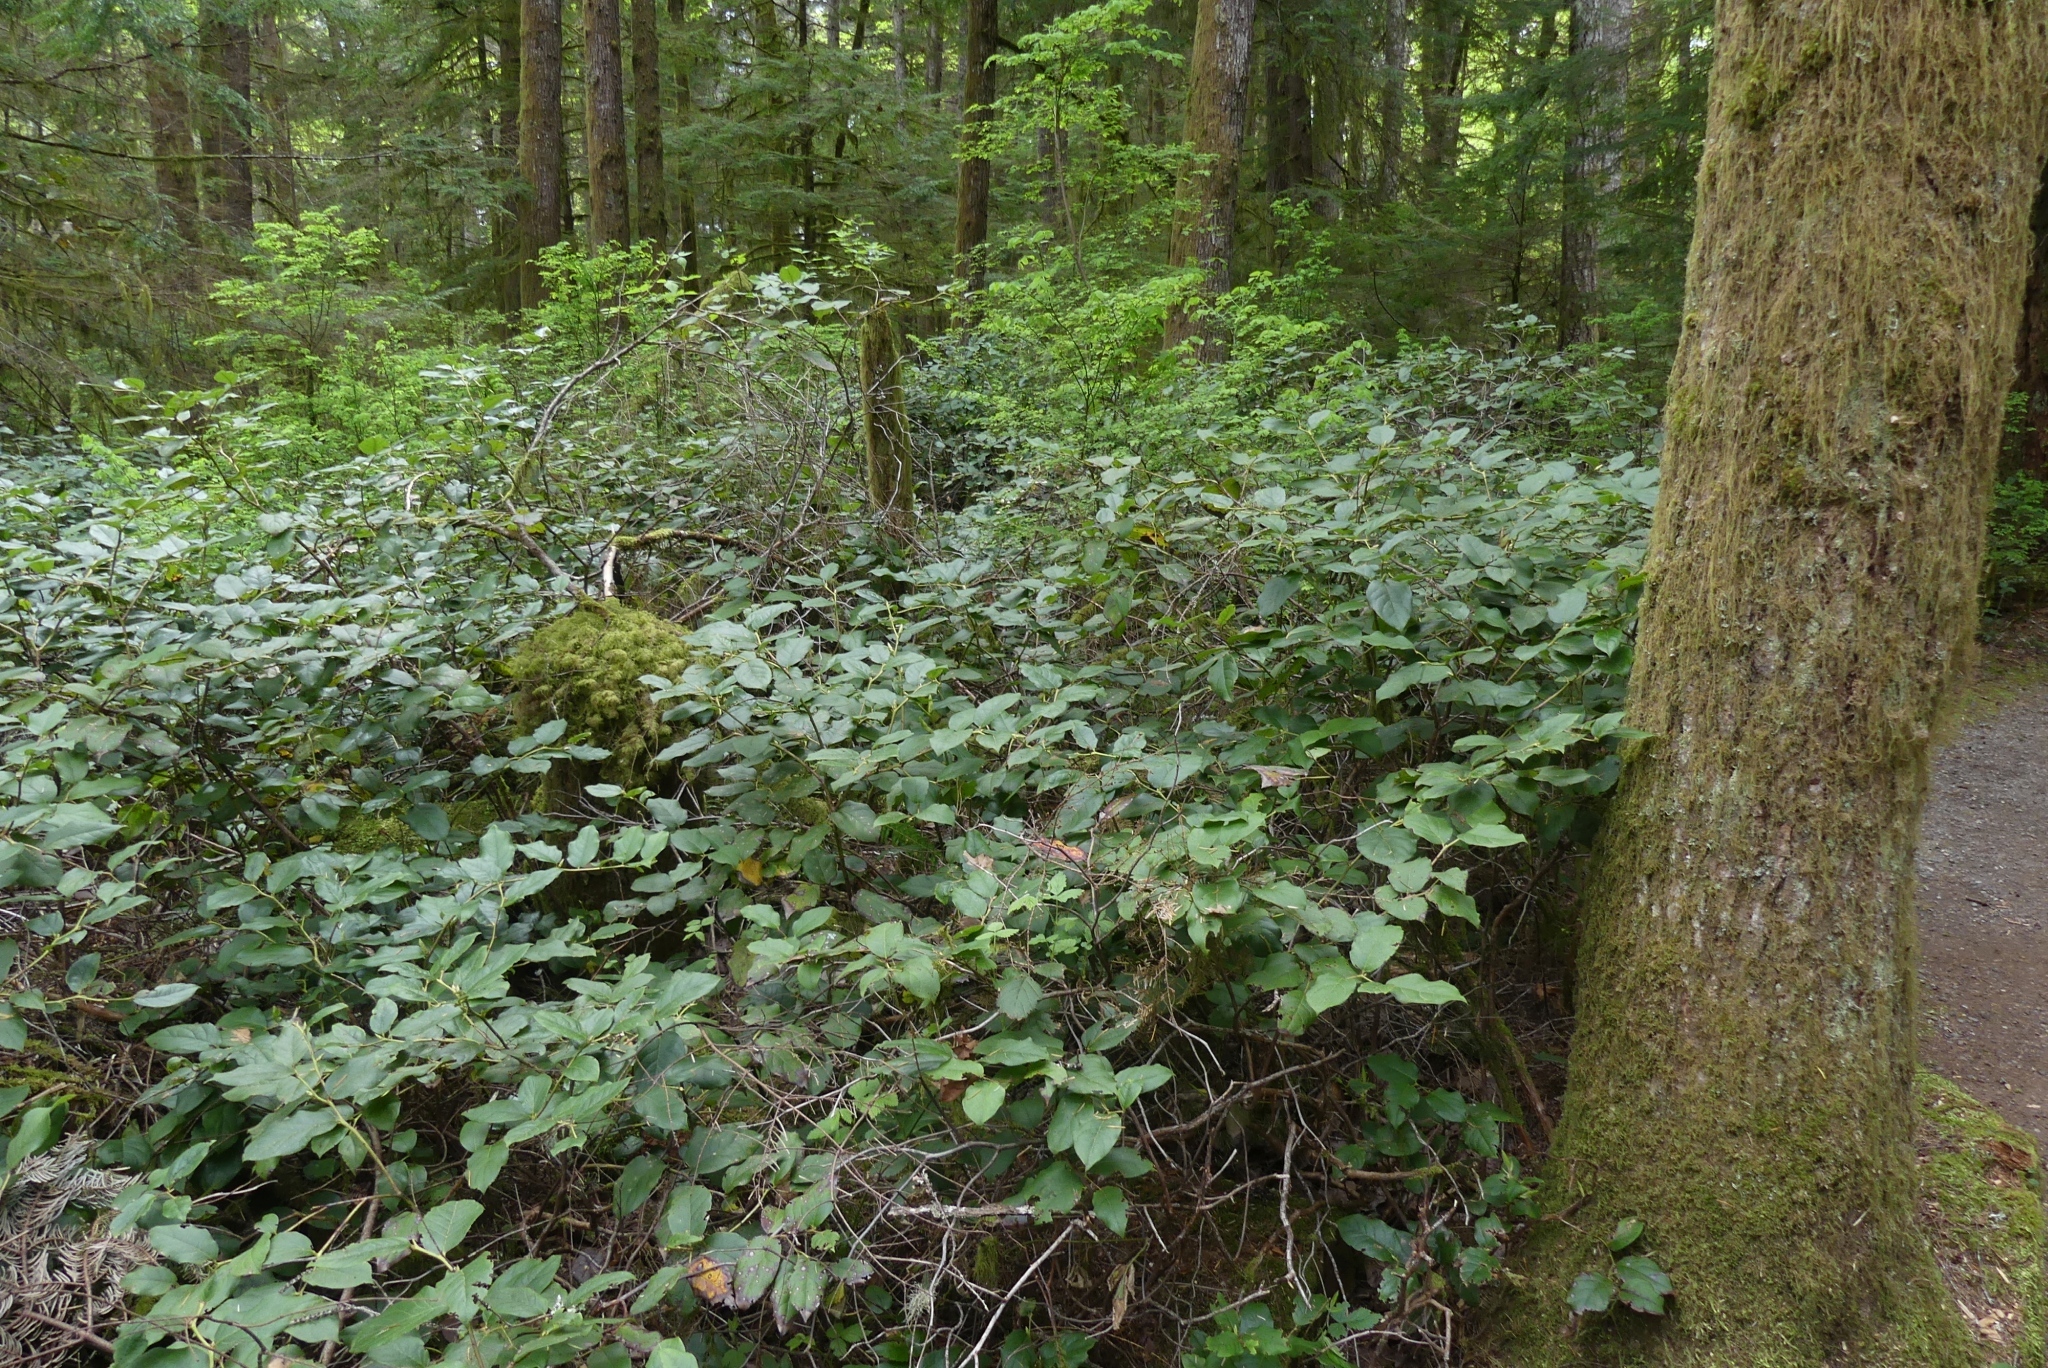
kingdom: Plantae
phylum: Tracheophyta
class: Magnoliopsida
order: Ericales
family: Ericaceae
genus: Gaultheria
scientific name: Gaultheria shallon
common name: Shallon
